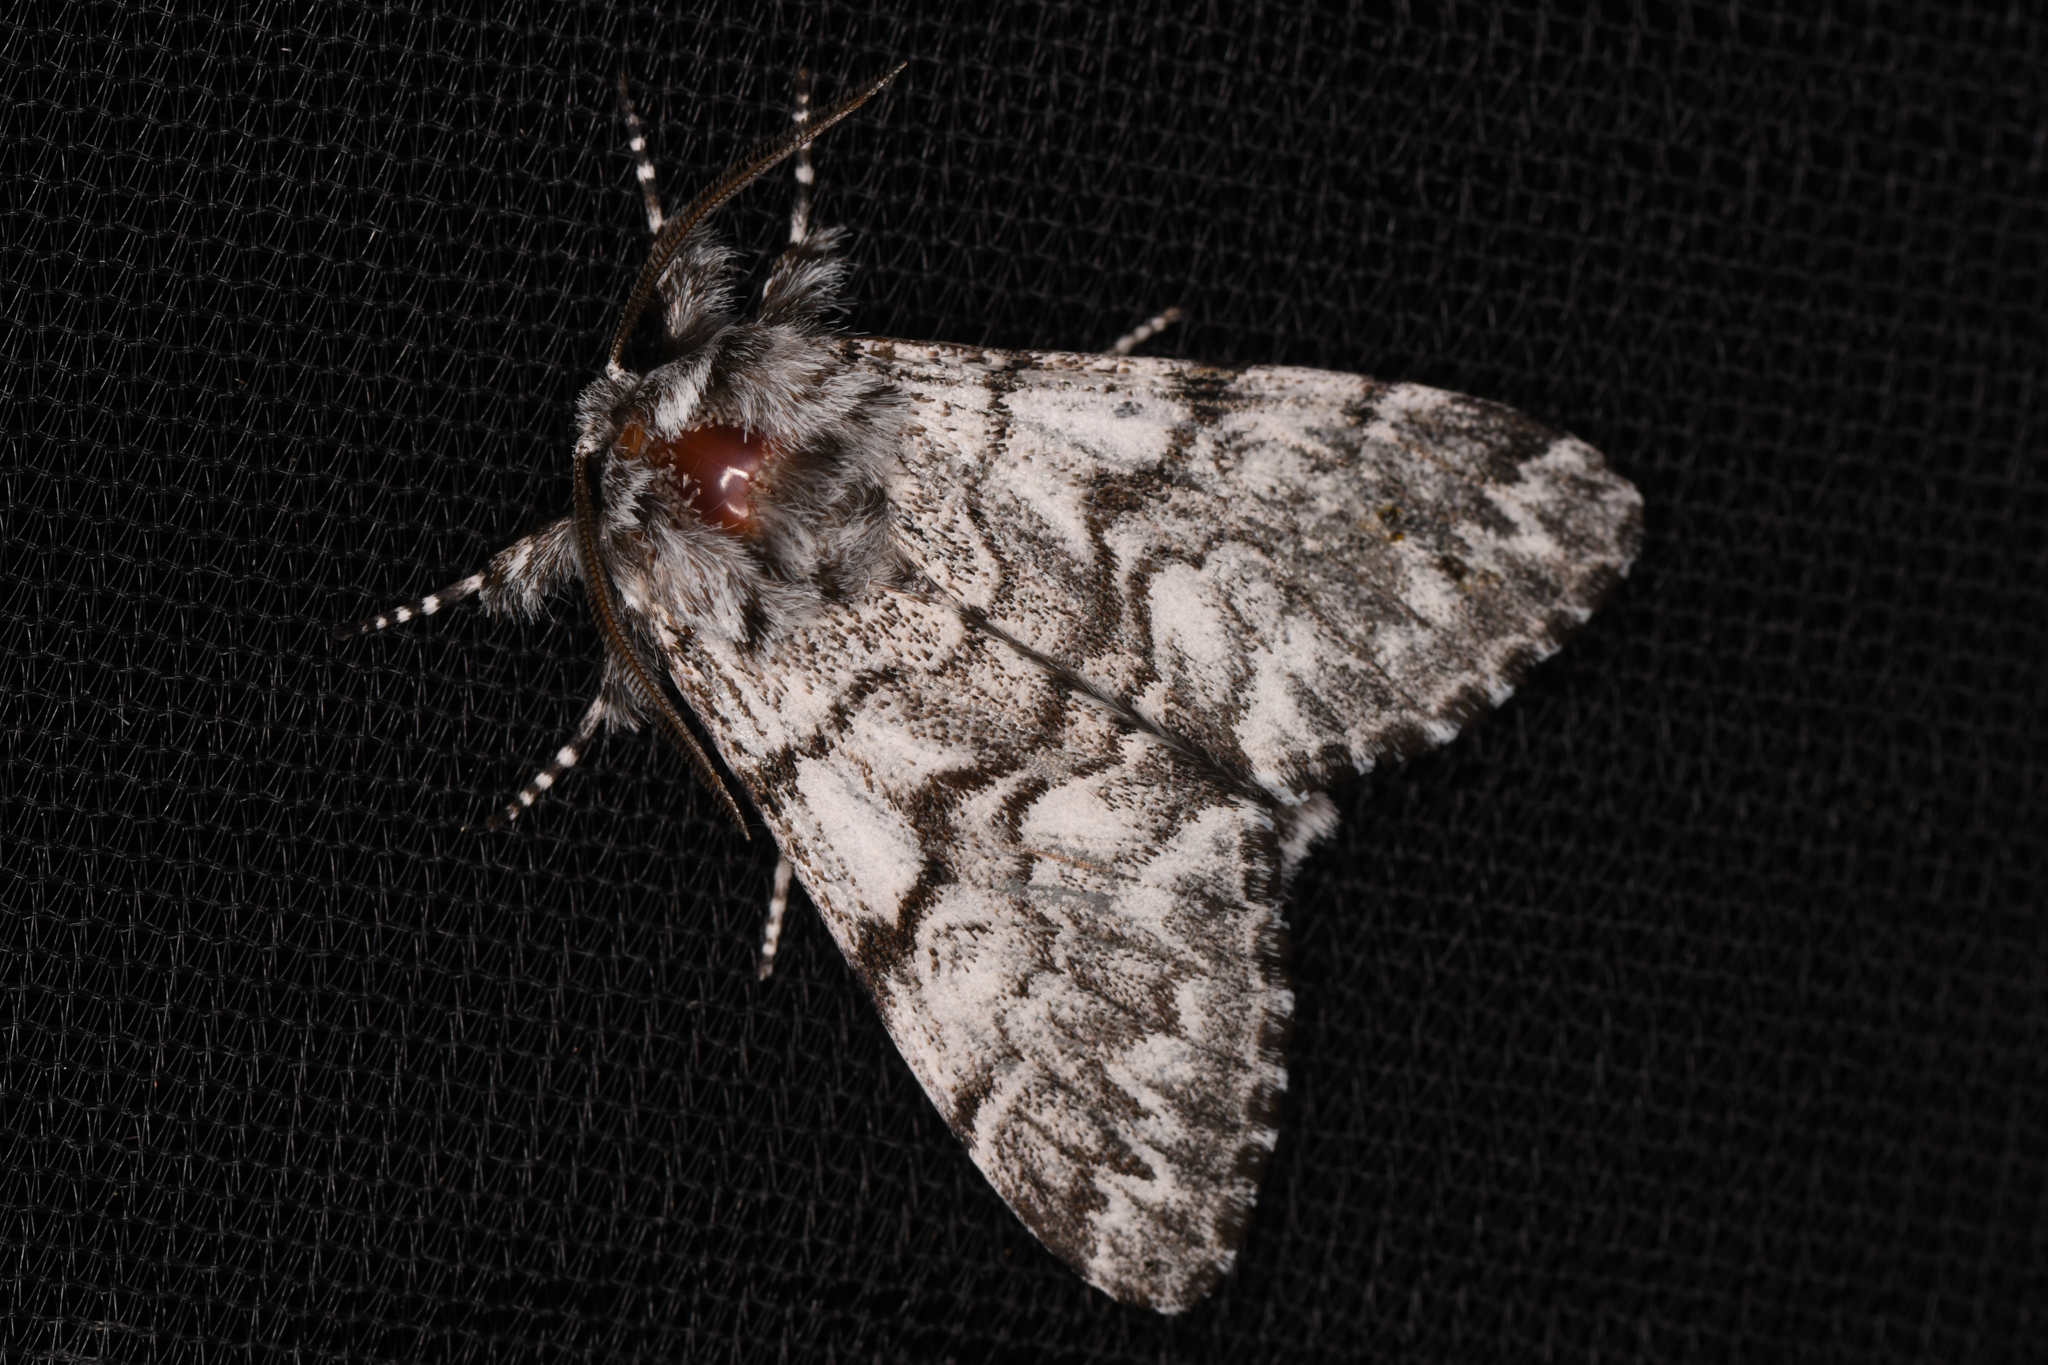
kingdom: Animalia
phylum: Arthropoda
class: Insecta
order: Lepidoptera
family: Noctuidae
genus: Panthea
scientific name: Panthea virginarius
